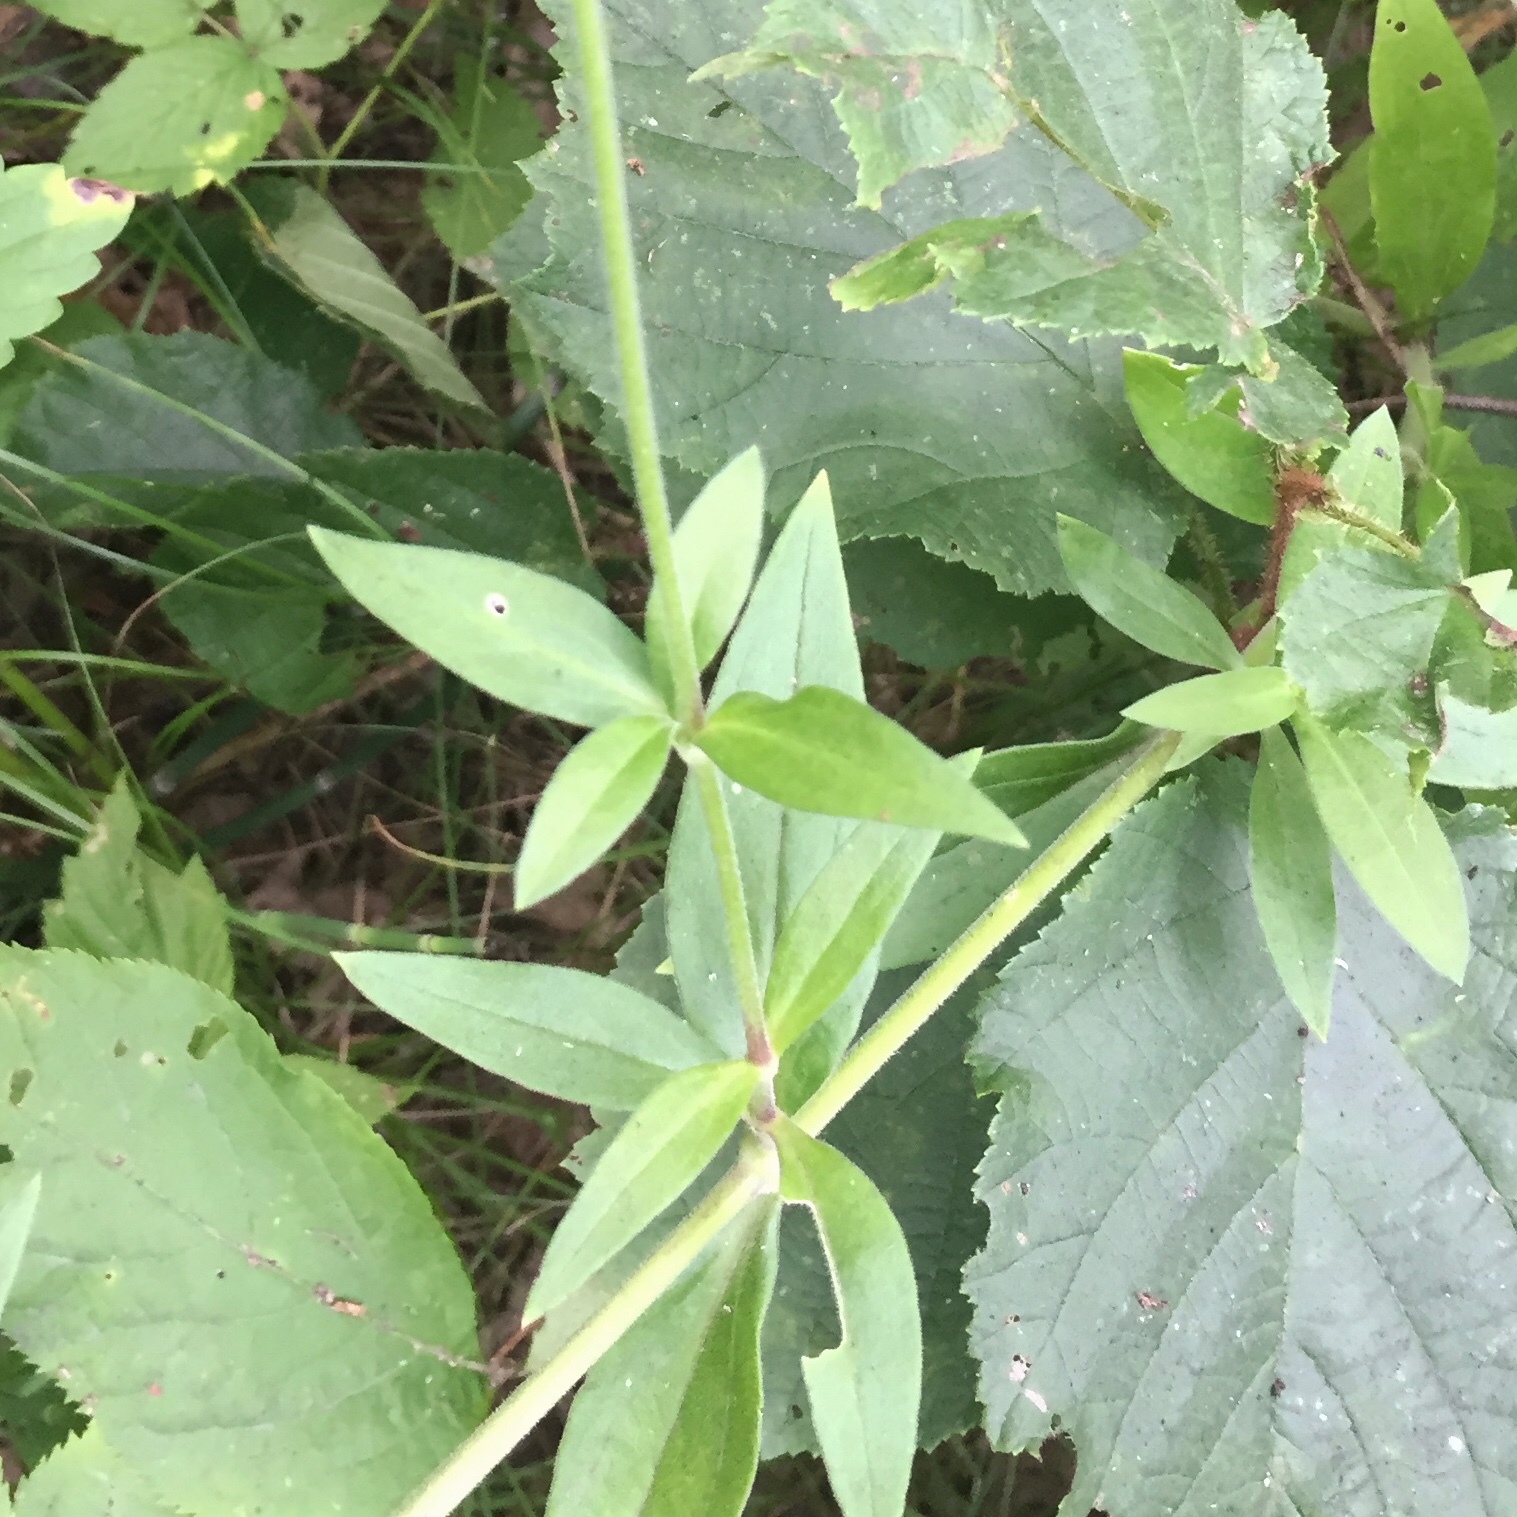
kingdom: Plantae
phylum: Tracheophyta
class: Magnoliopsida
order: Caryophyllales
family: Caryophyllaceae
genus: Silene
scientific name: Silene latifolia
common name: White campion
